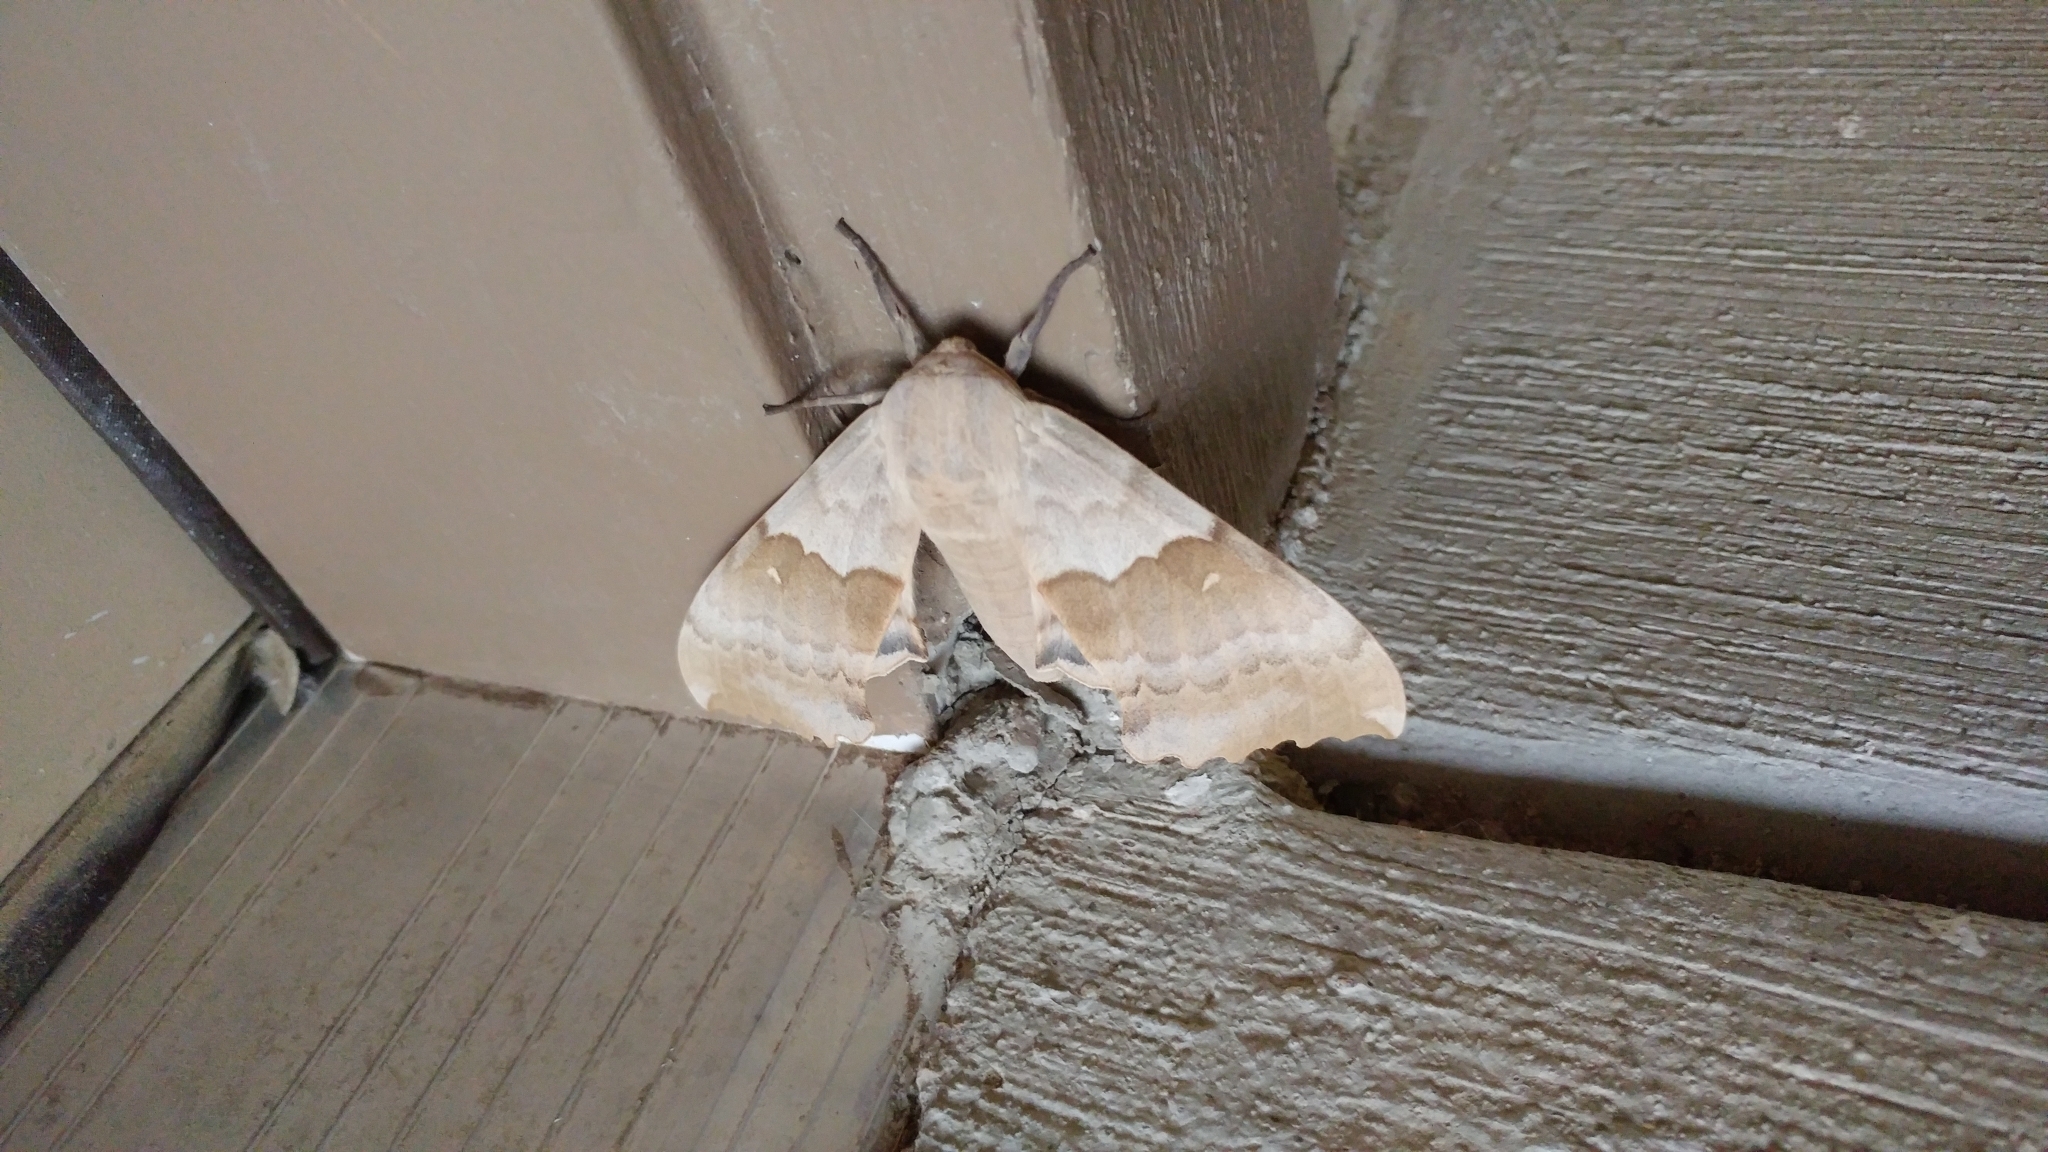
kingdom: Animalia
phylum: Arthropoda
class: Insecta
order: Lepidoptera
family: Sphingidae
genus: Pachysphinx
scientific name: Pachysphinx occidentalis
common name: Western poplar sphinx
